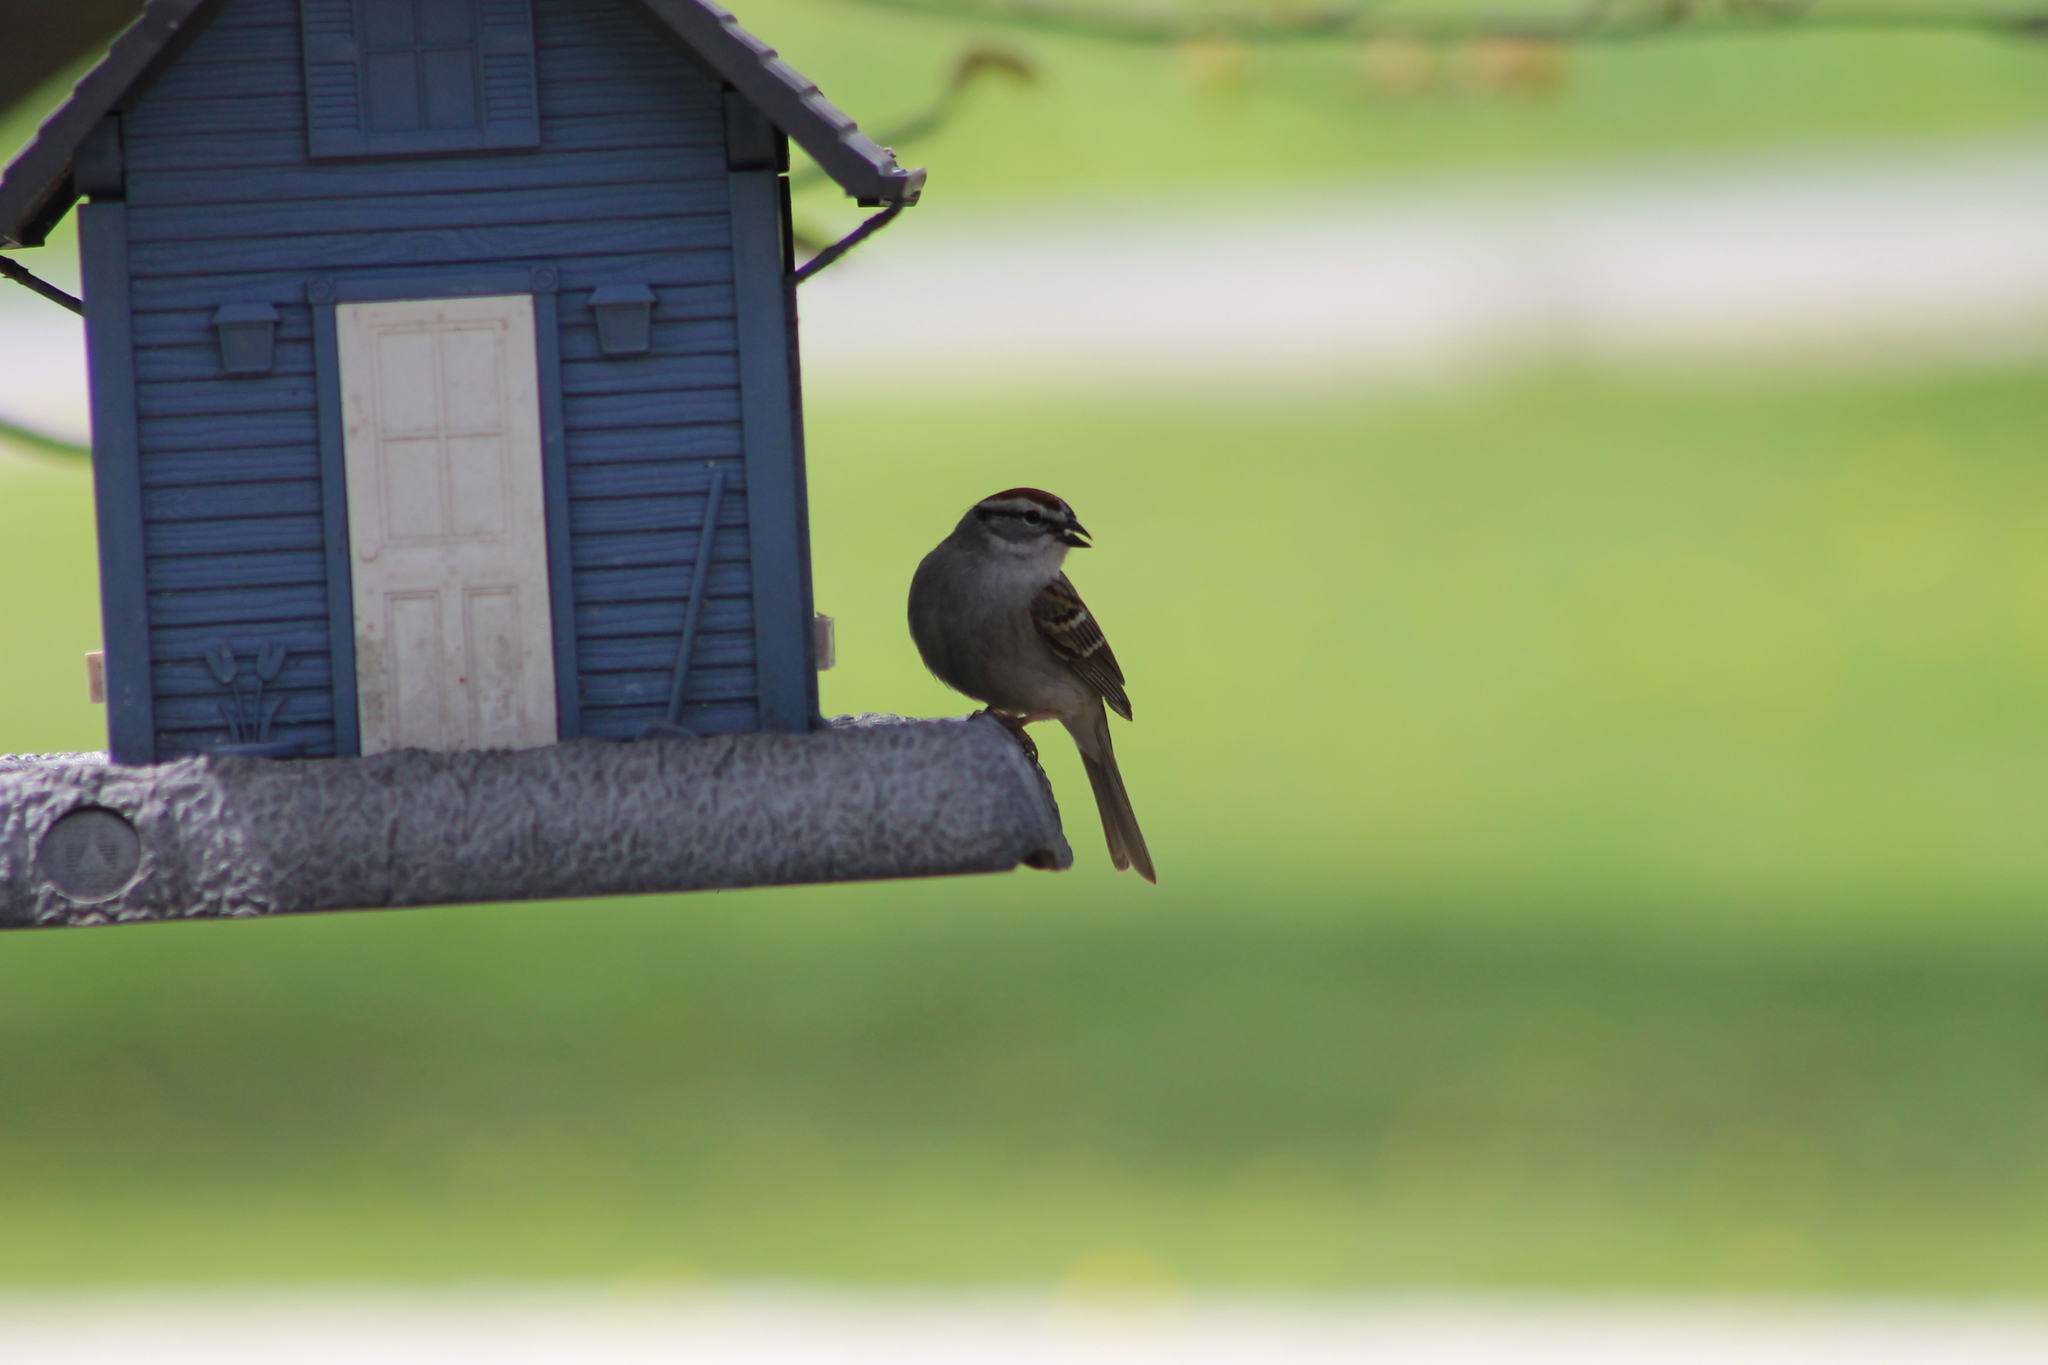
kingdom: Animalia
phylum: Chordata
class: Aves
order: Passeriformes
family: Passerellidae
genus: Spizella
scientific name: Spizella passerina
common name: Chipping sparrow
